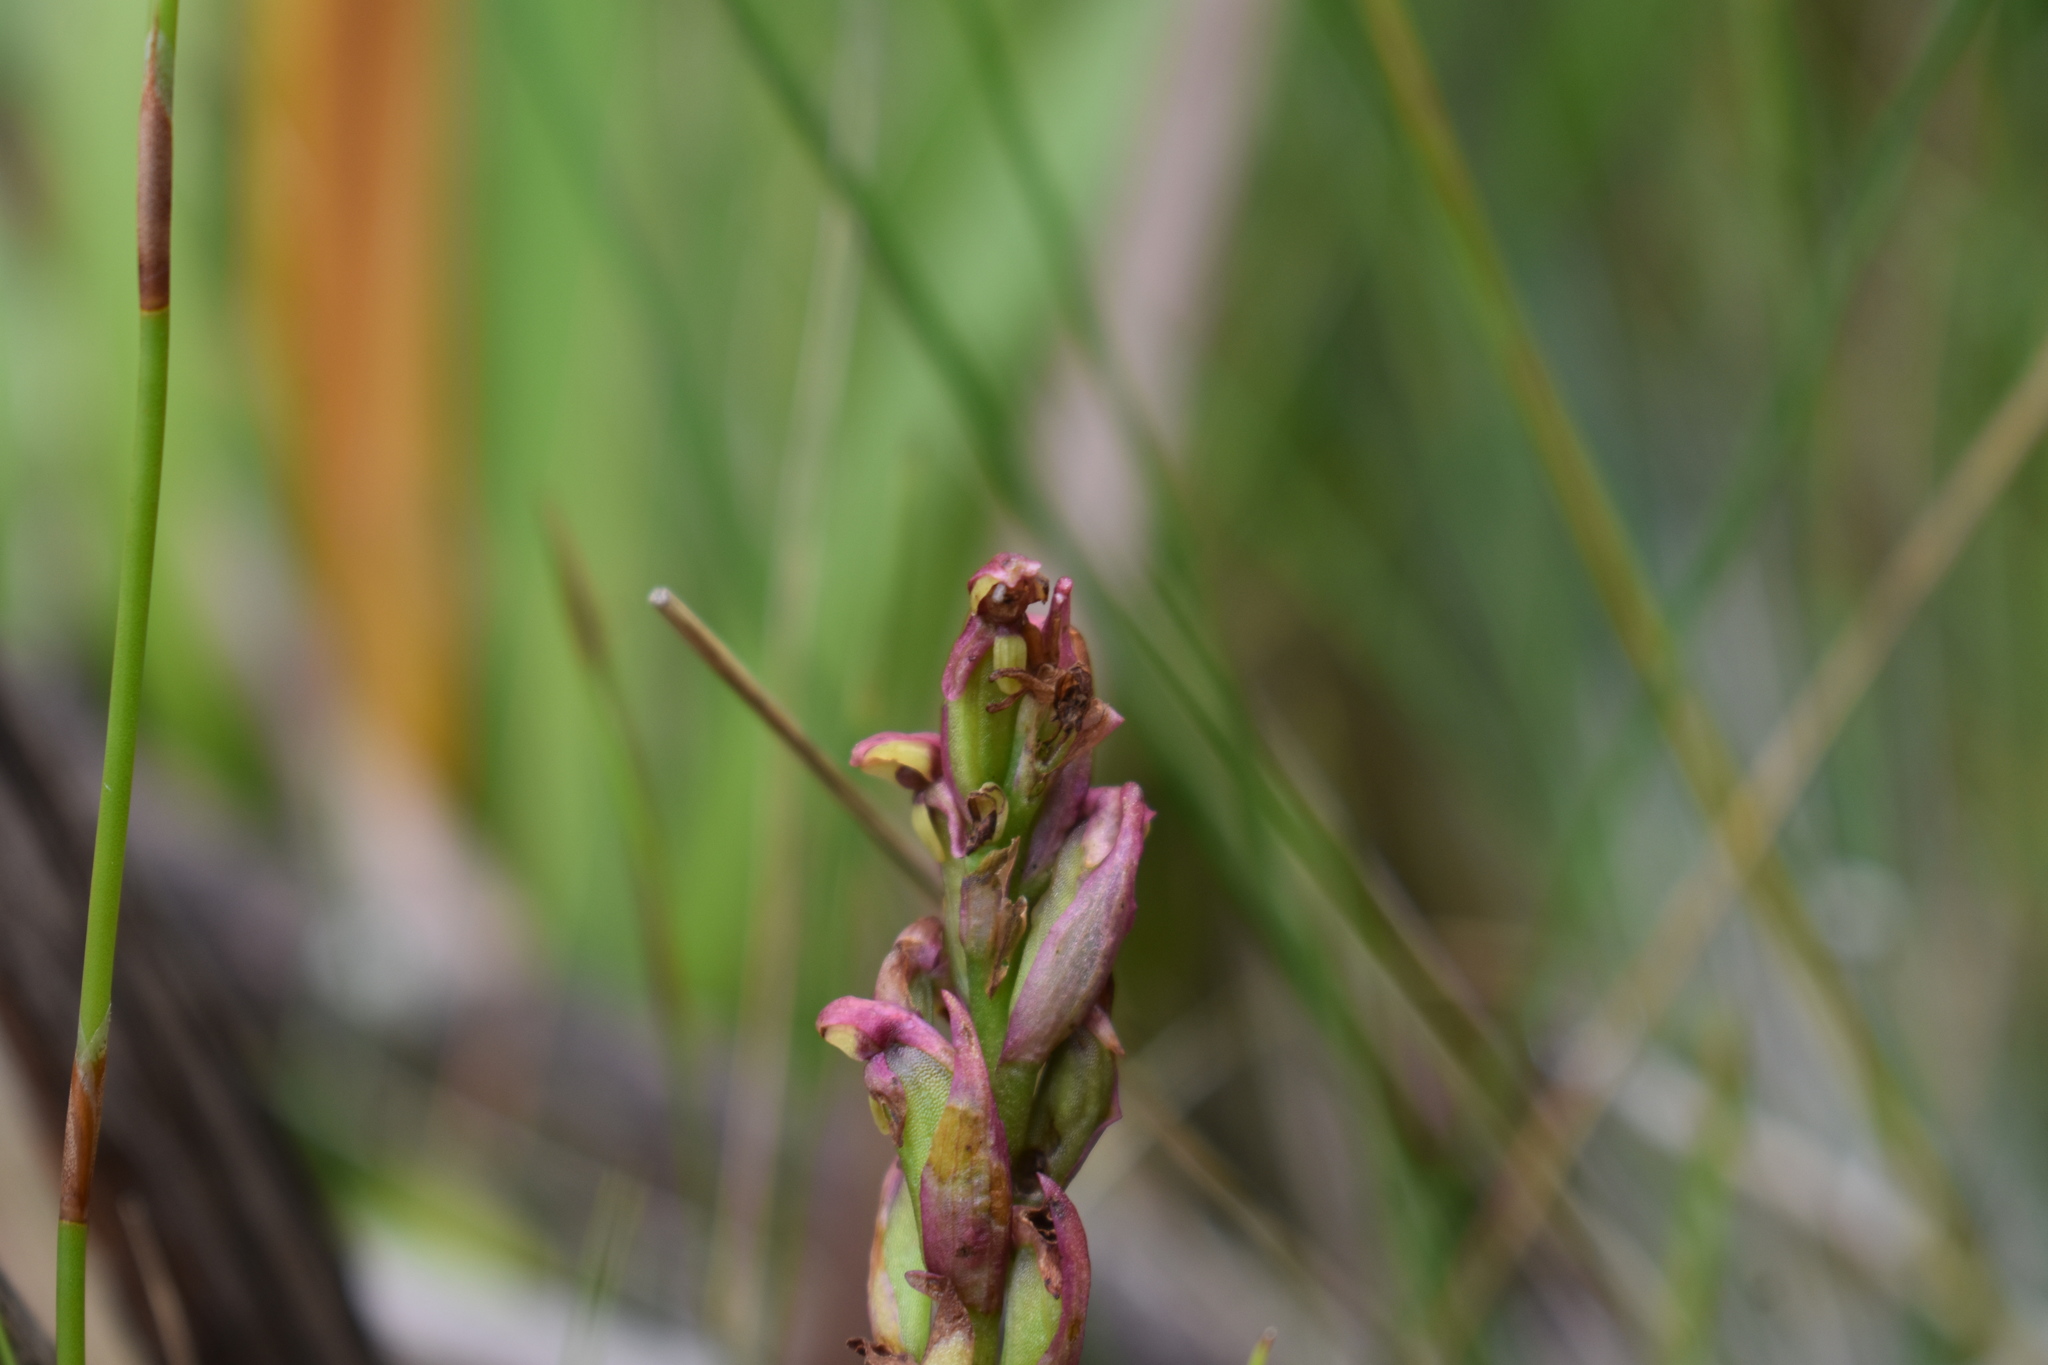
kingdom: Plantae
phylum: Tracheophyta
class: Liliopsida
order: Asparagales
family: Orchidaceae
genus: Disa
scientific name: Disa brevicornis
